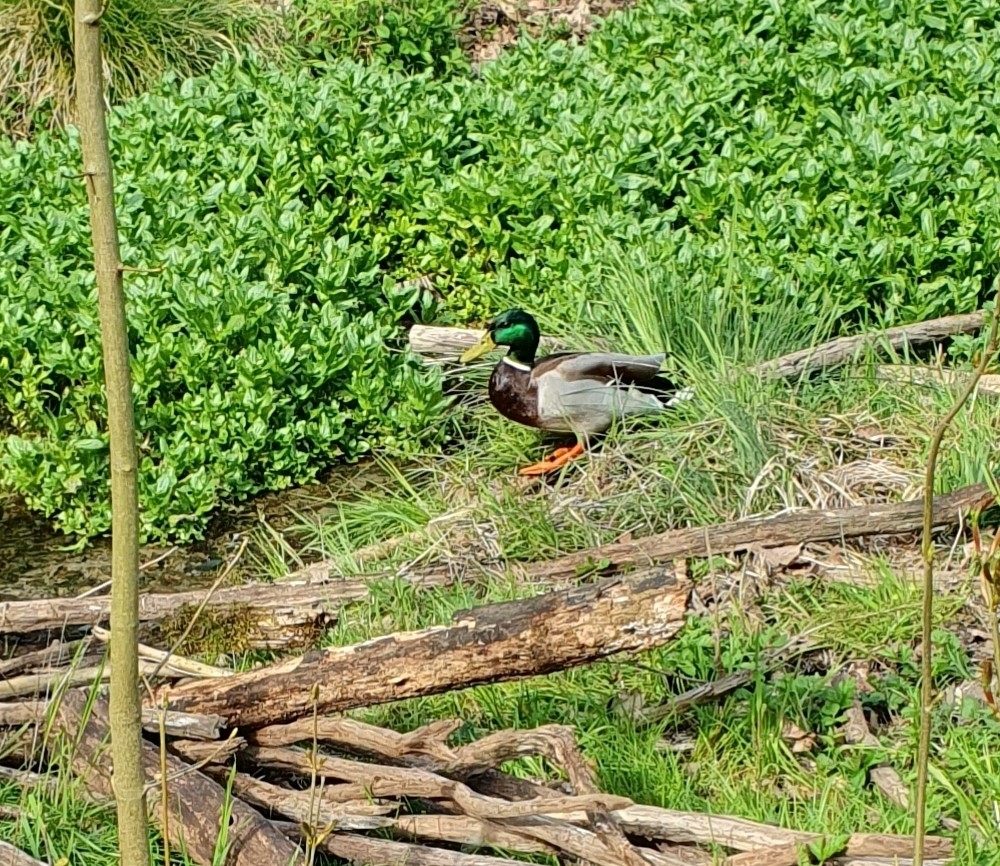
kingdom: Animalia
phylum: Chordata
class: Aves
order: Anseriformes
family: Anatidae
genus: Anas
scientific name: Anas platyrhynchos
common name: Mallard
